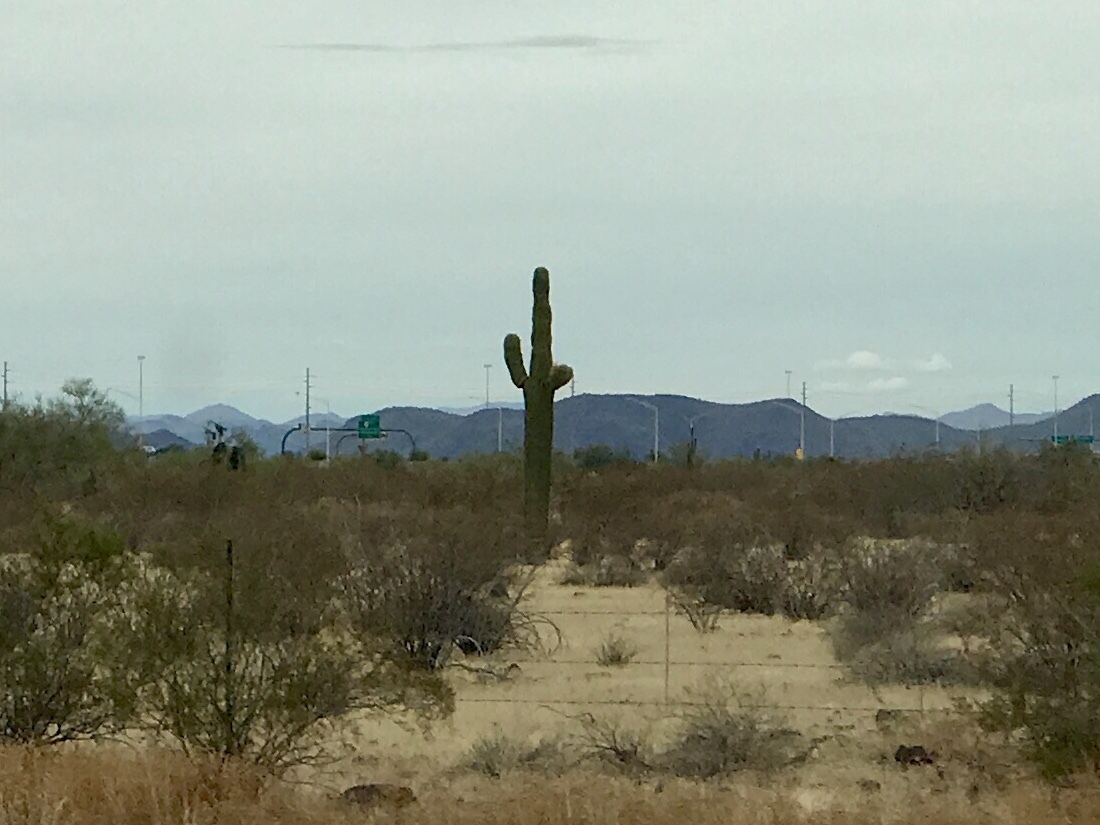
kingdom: Plantae
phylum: Tracheophyta
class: Magnoliopsida
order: Caryophyllales
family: Cactaceae
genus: Carnegiea
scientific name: Carnegiea gigantea
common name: Saguaro
